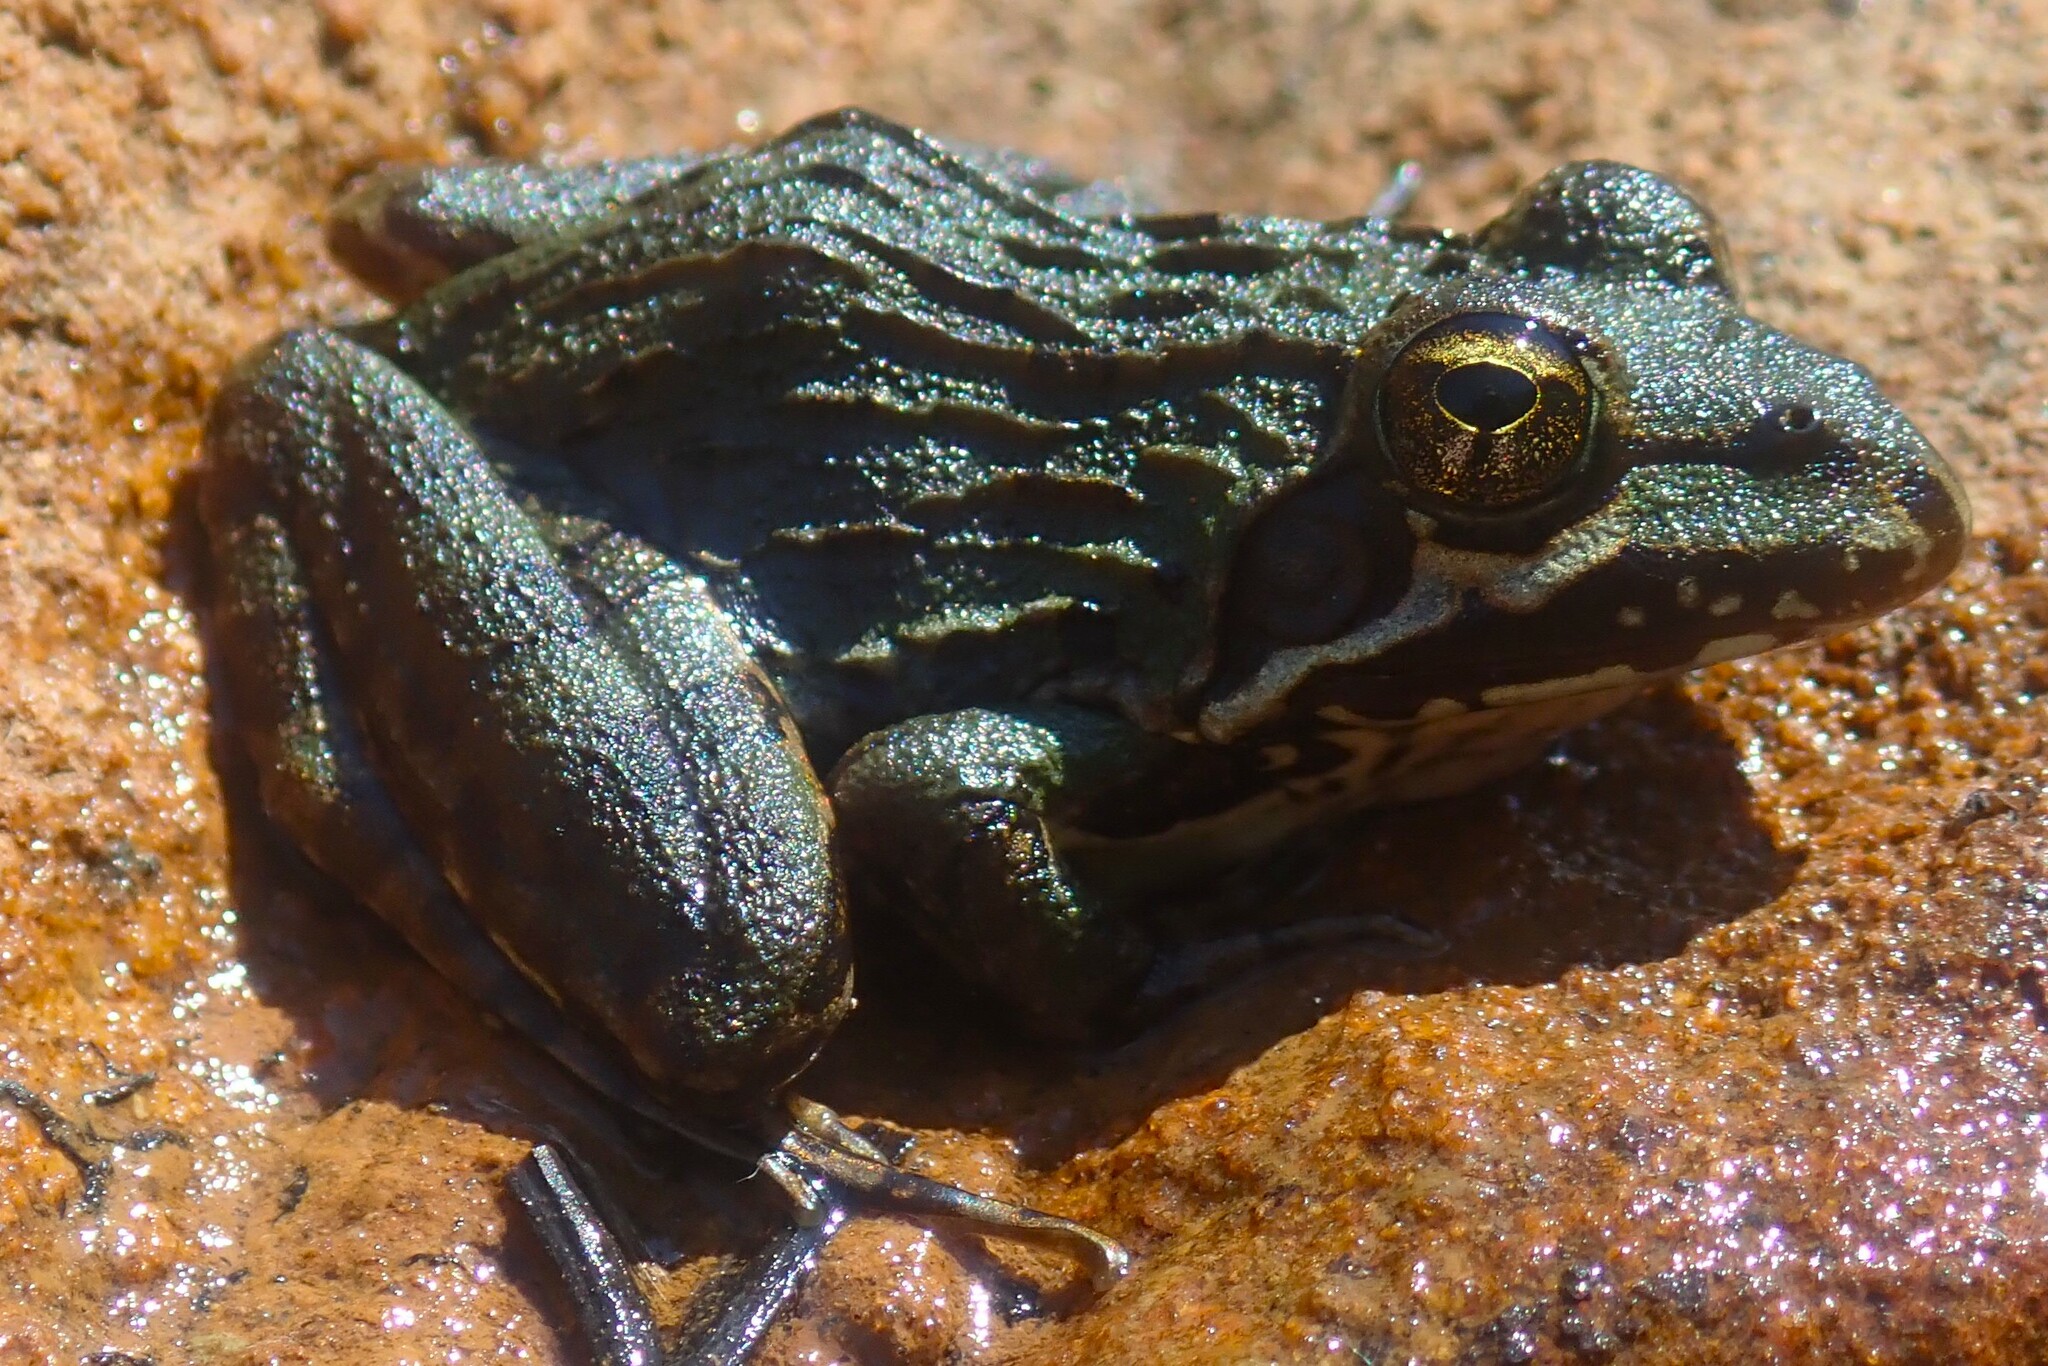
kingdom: Animalia
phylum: Chordata
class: Amphibia
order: Anura
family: Pyxicephalidae
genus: Amietia
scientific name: Amietia delalandii
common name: Delalande's river frog
